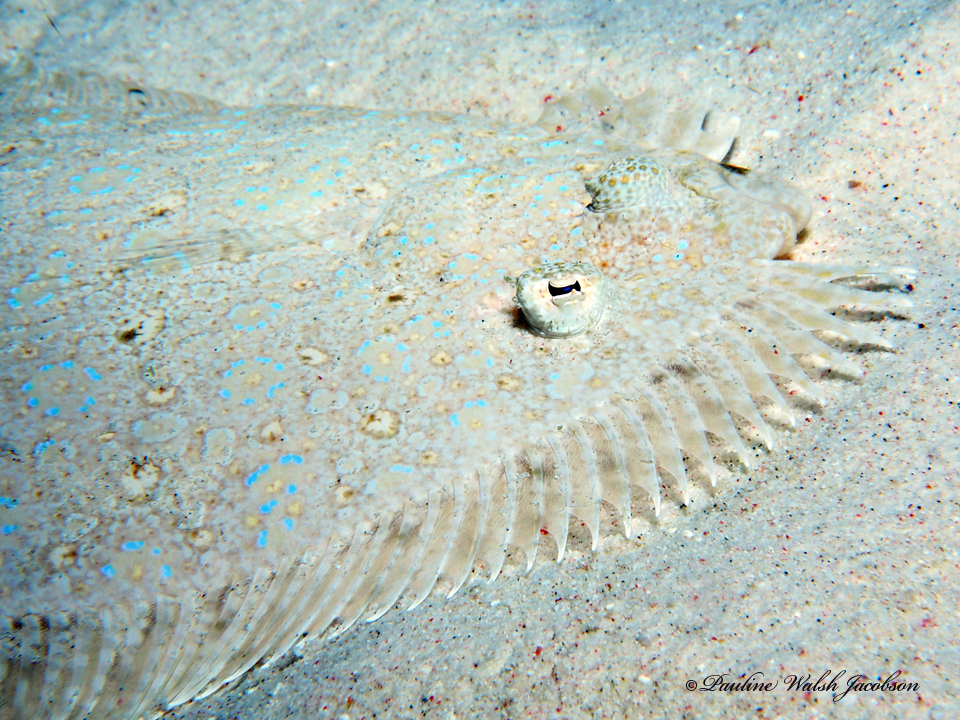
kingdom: Animalia
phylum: Chordata
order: Pleuronectiformes
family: Bothidae
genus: Bothus
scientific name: Bothus maculiferus
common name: Mottled flounder
